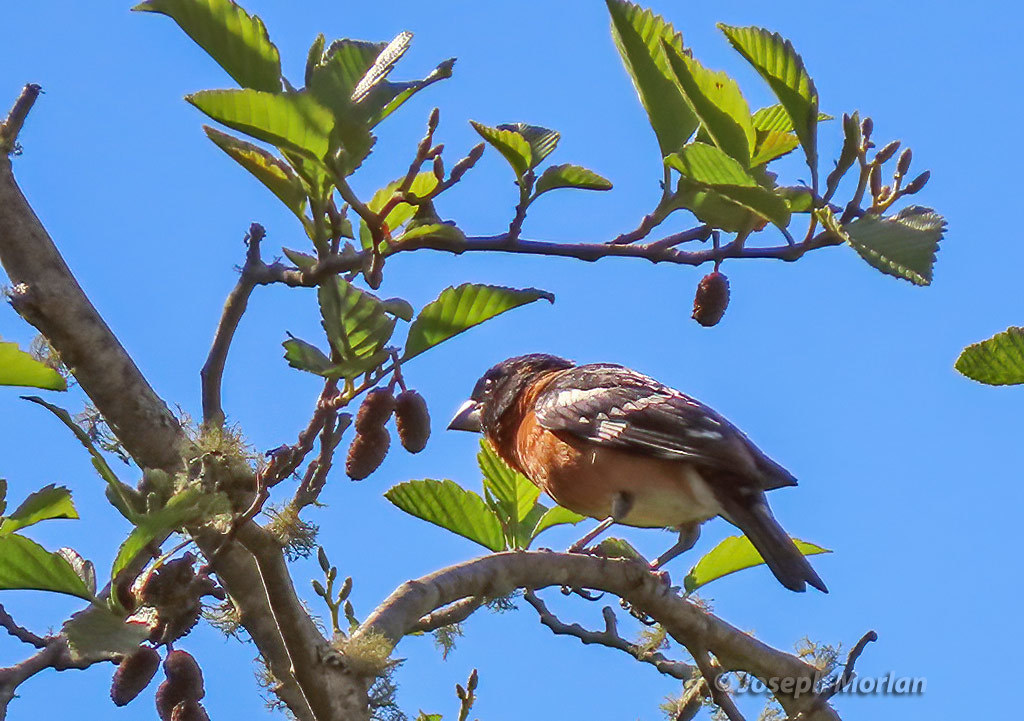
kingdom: Animalia
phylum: Chordata
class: Aves
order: Passeriformes
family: Cardinalidae
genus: Pheucticus
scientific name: Pheucticus melanocephalus
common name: Black-headed grosbeak
